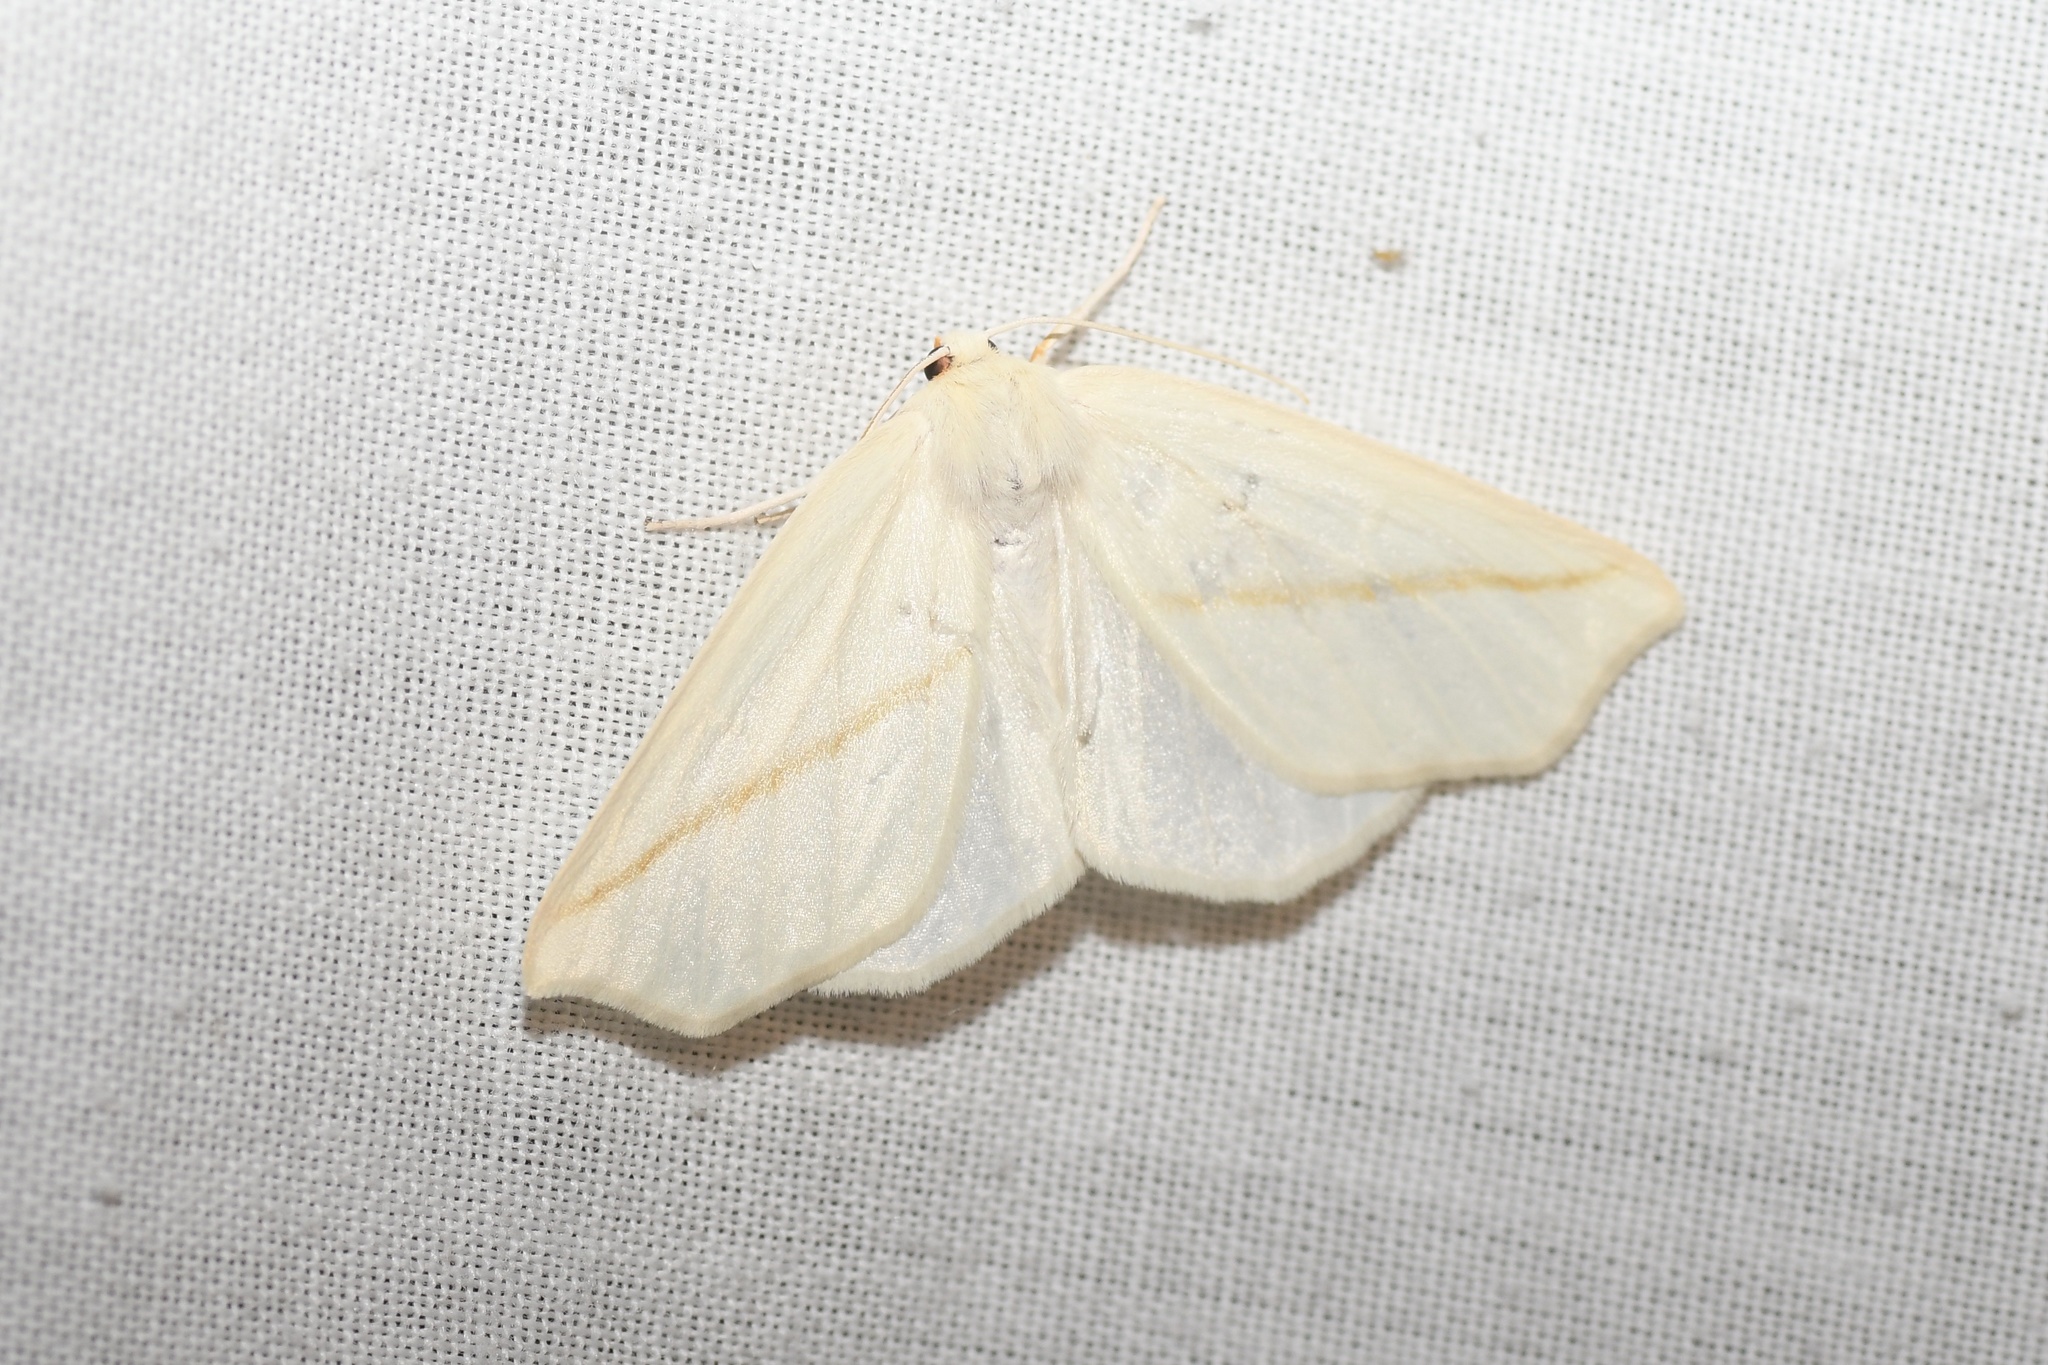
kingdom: Animalia
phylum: Arthropoda
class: Insecta
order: Lepidoptera
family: Geometridae
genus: Tetracis
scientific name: Tetracis cachexiata
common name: White slant-line
